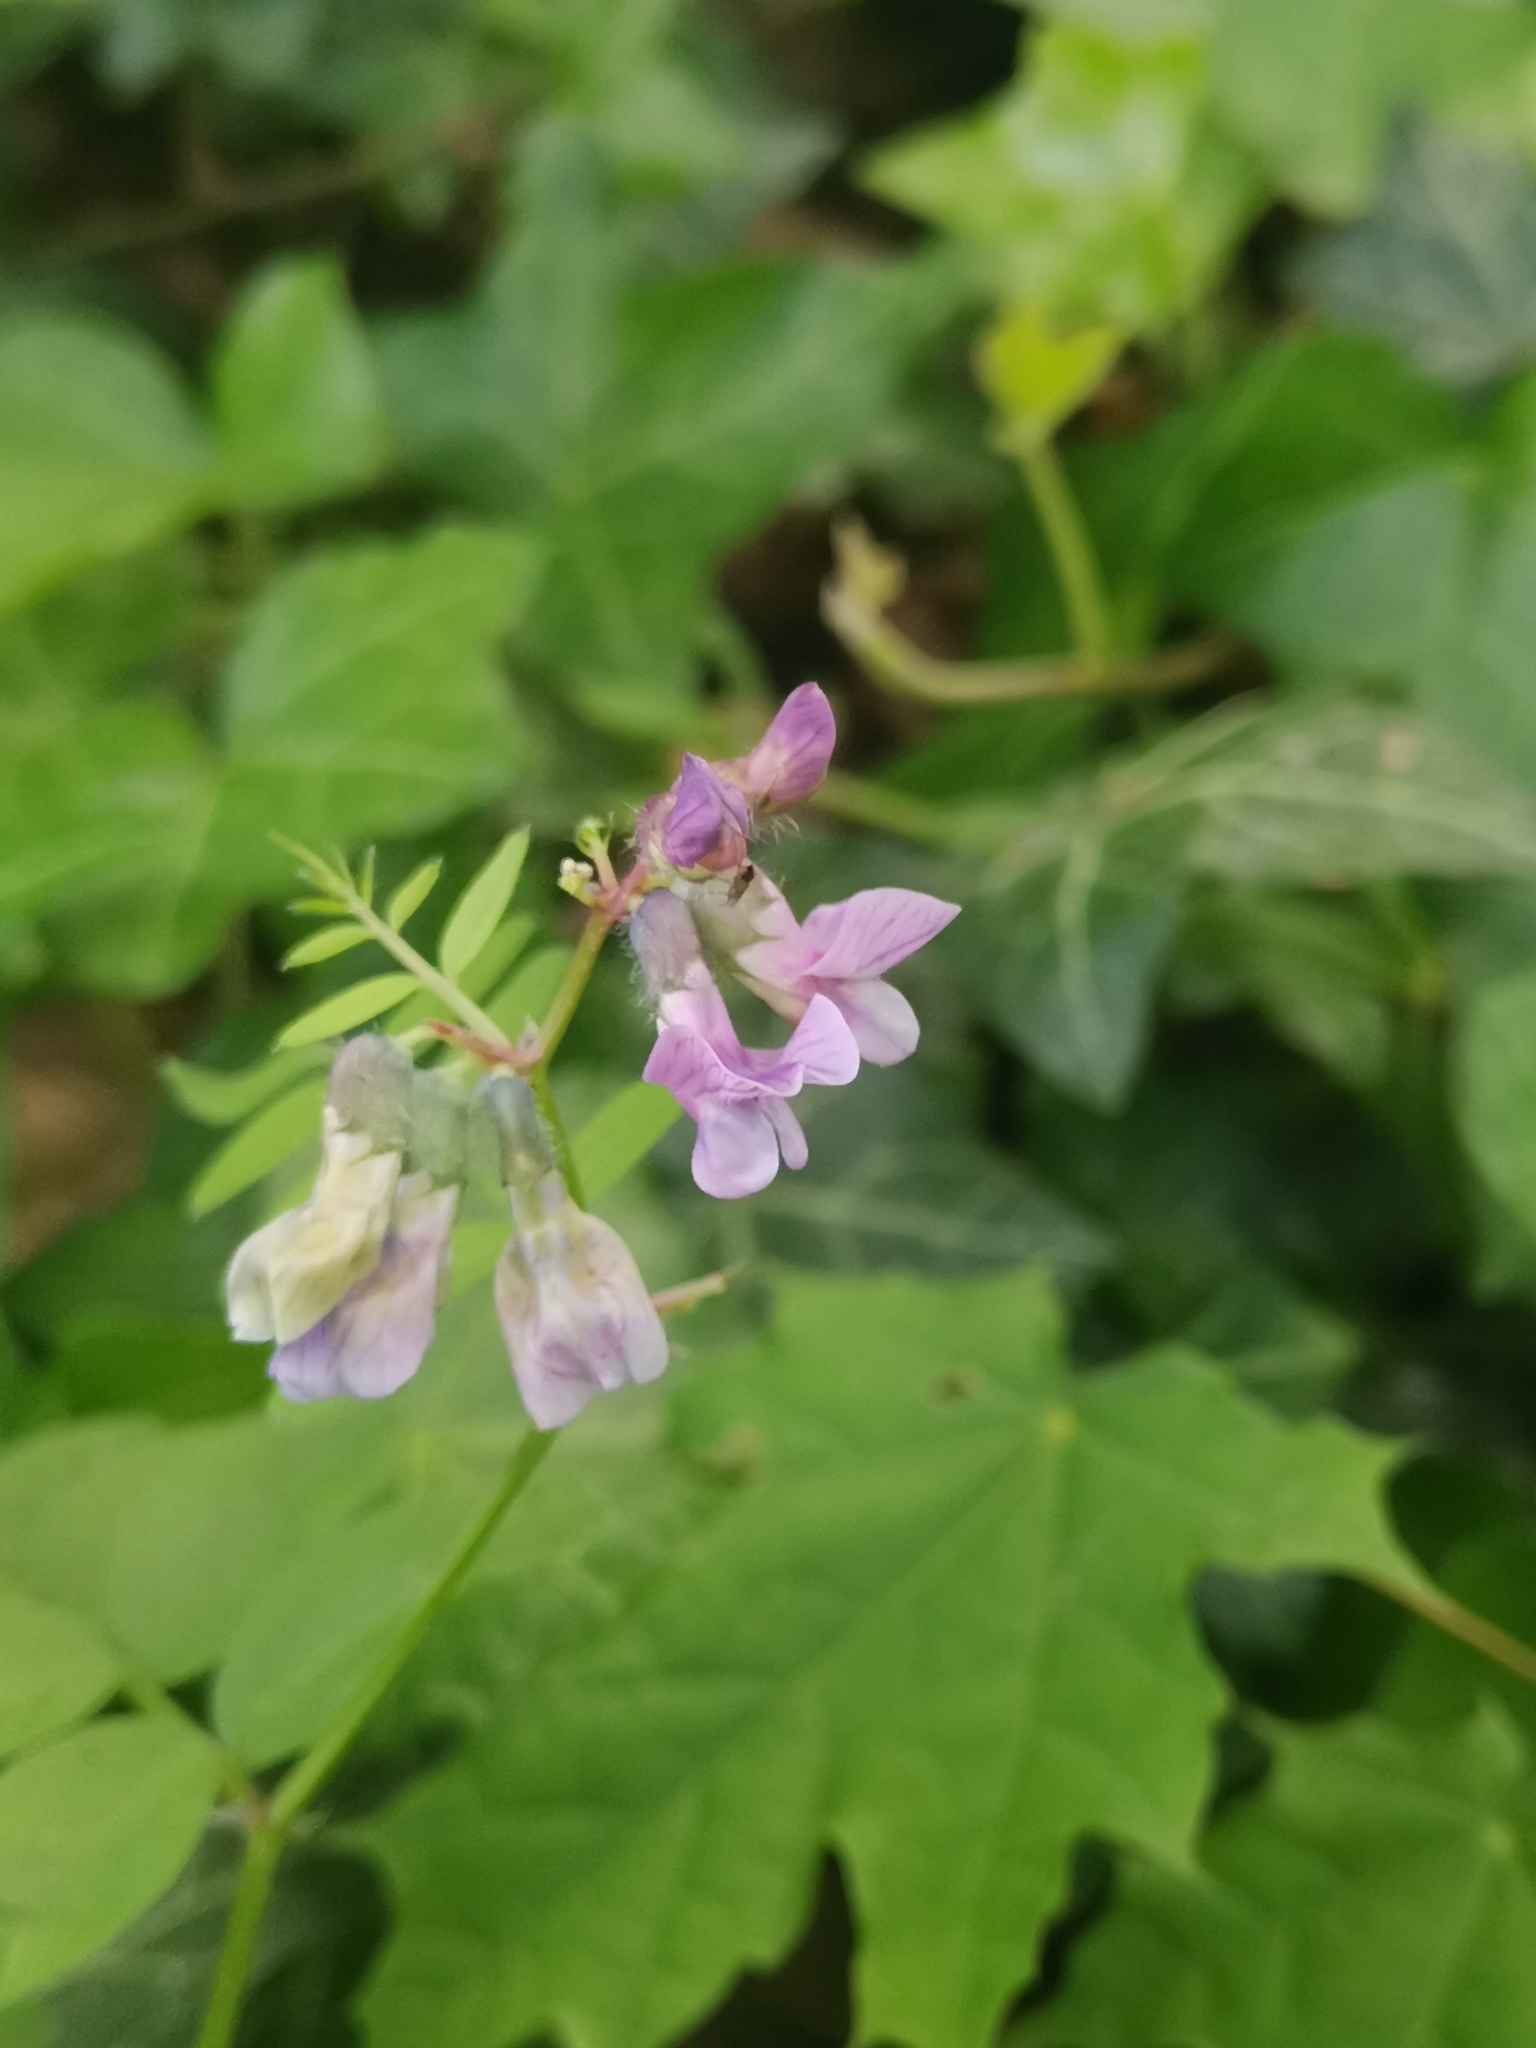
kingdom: Plantae
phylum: Tracheophyta
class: Magnoliopsida
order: Fabales
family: Fabaceae
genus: Vicia
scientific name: Vicia sepium
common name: Bush vetch
